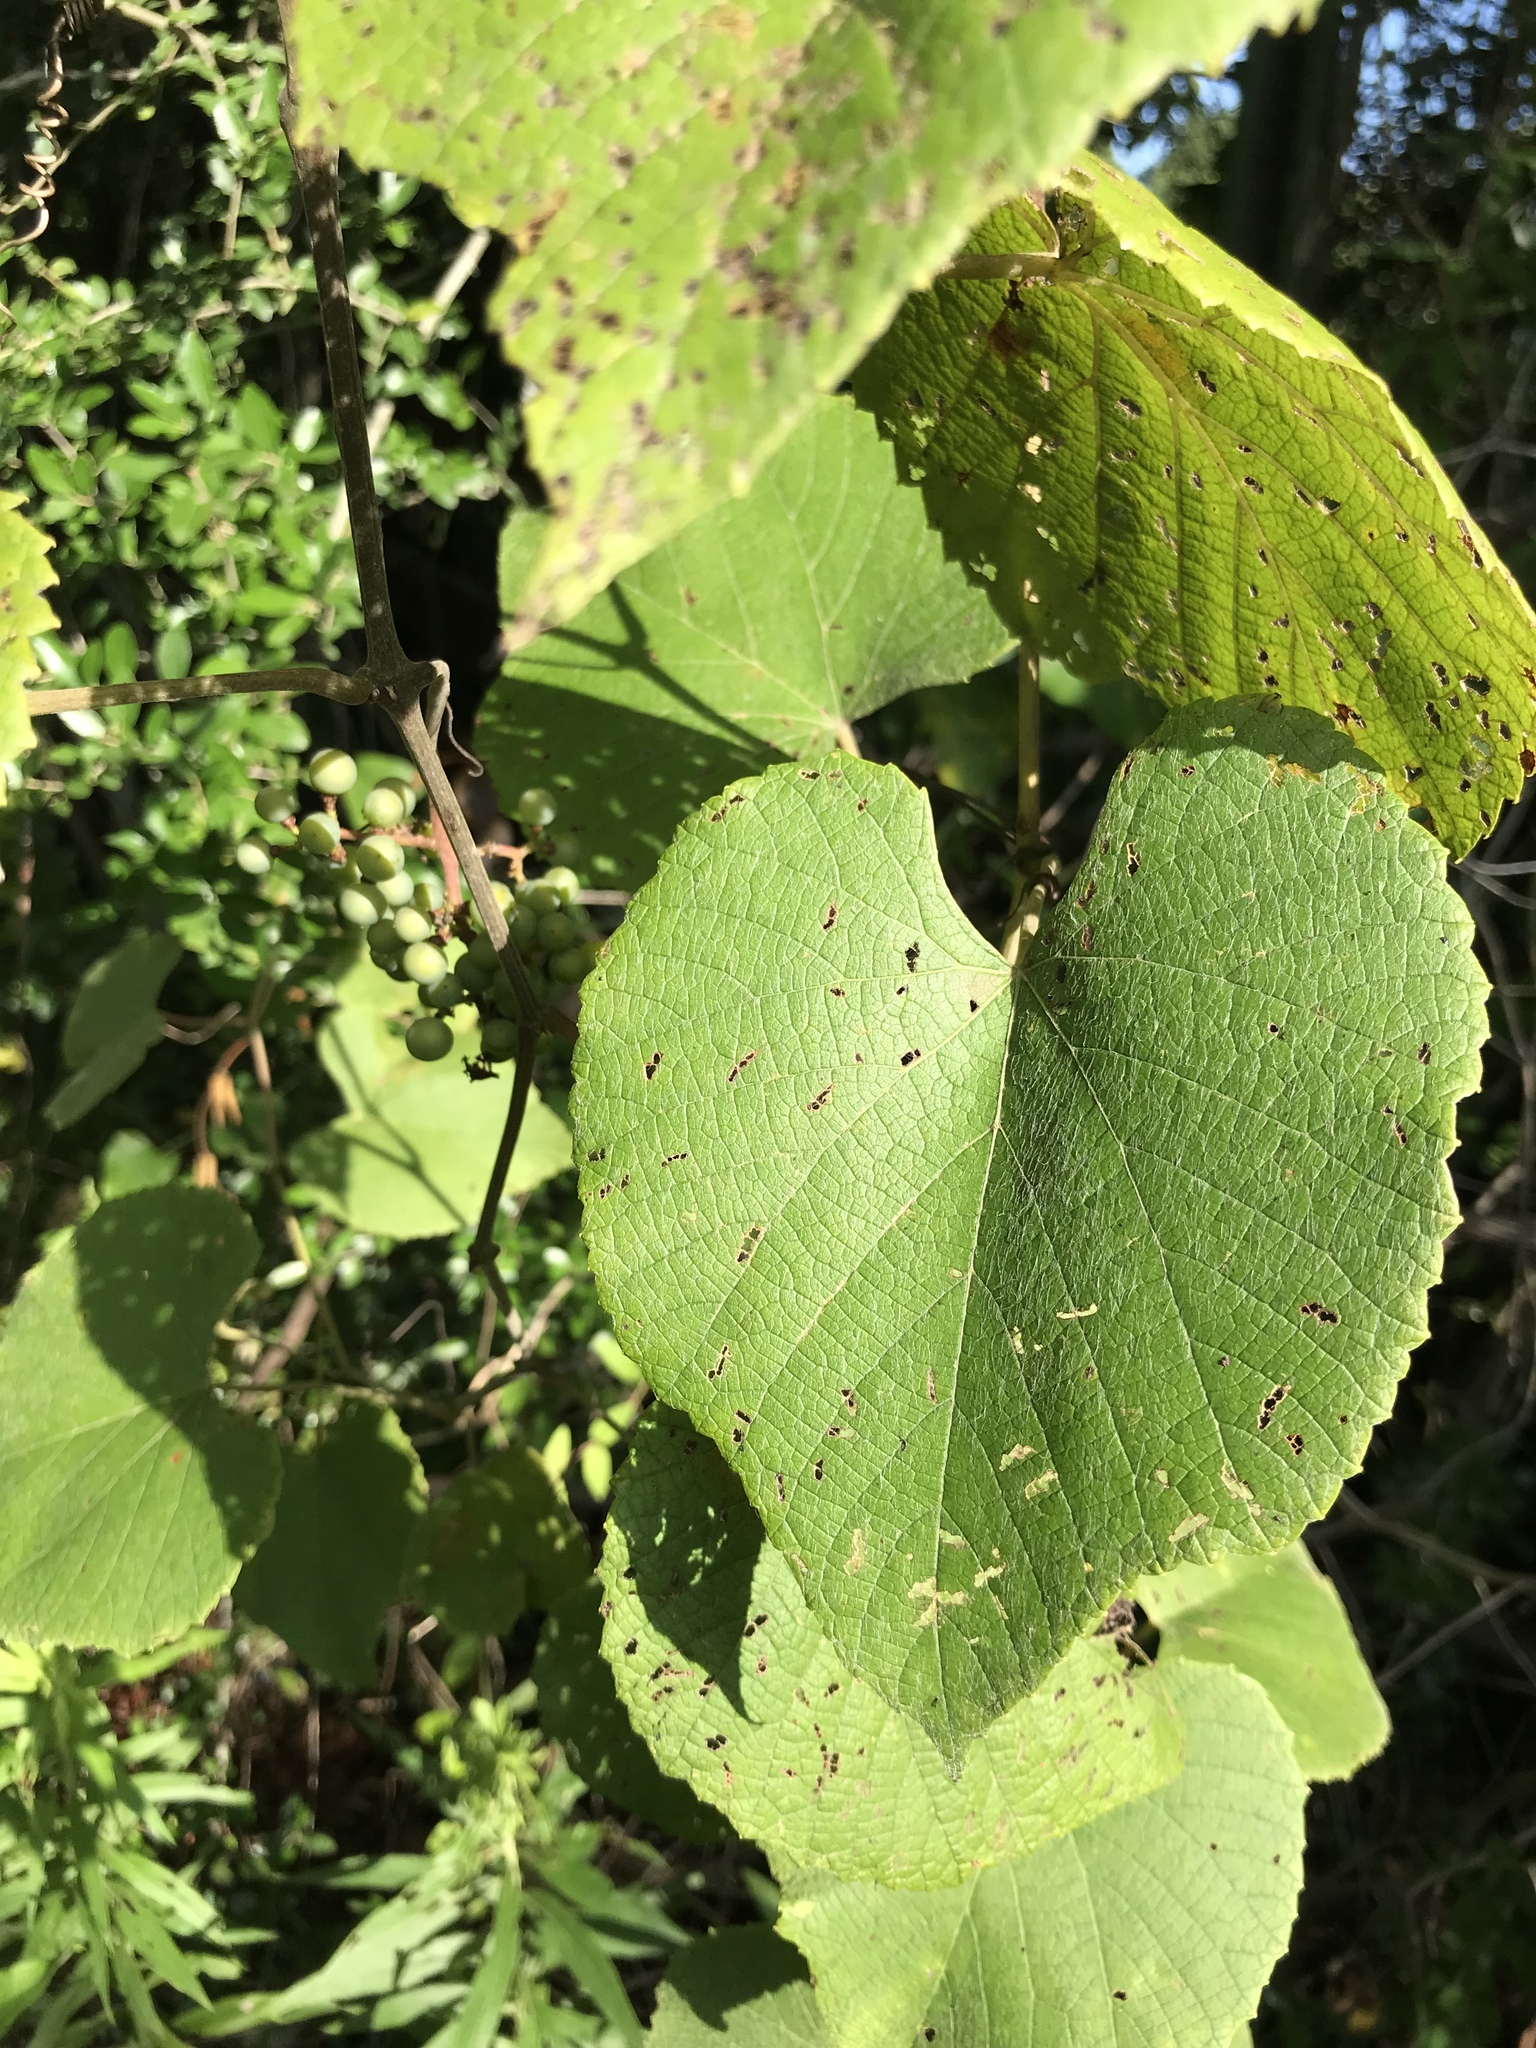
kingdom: Plantae
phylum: Tracheophyta
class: Magnoliopsida
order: Vitales
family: Vitaceae
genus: Vitis
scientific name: Vitis cinerea
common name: Ashy grape
